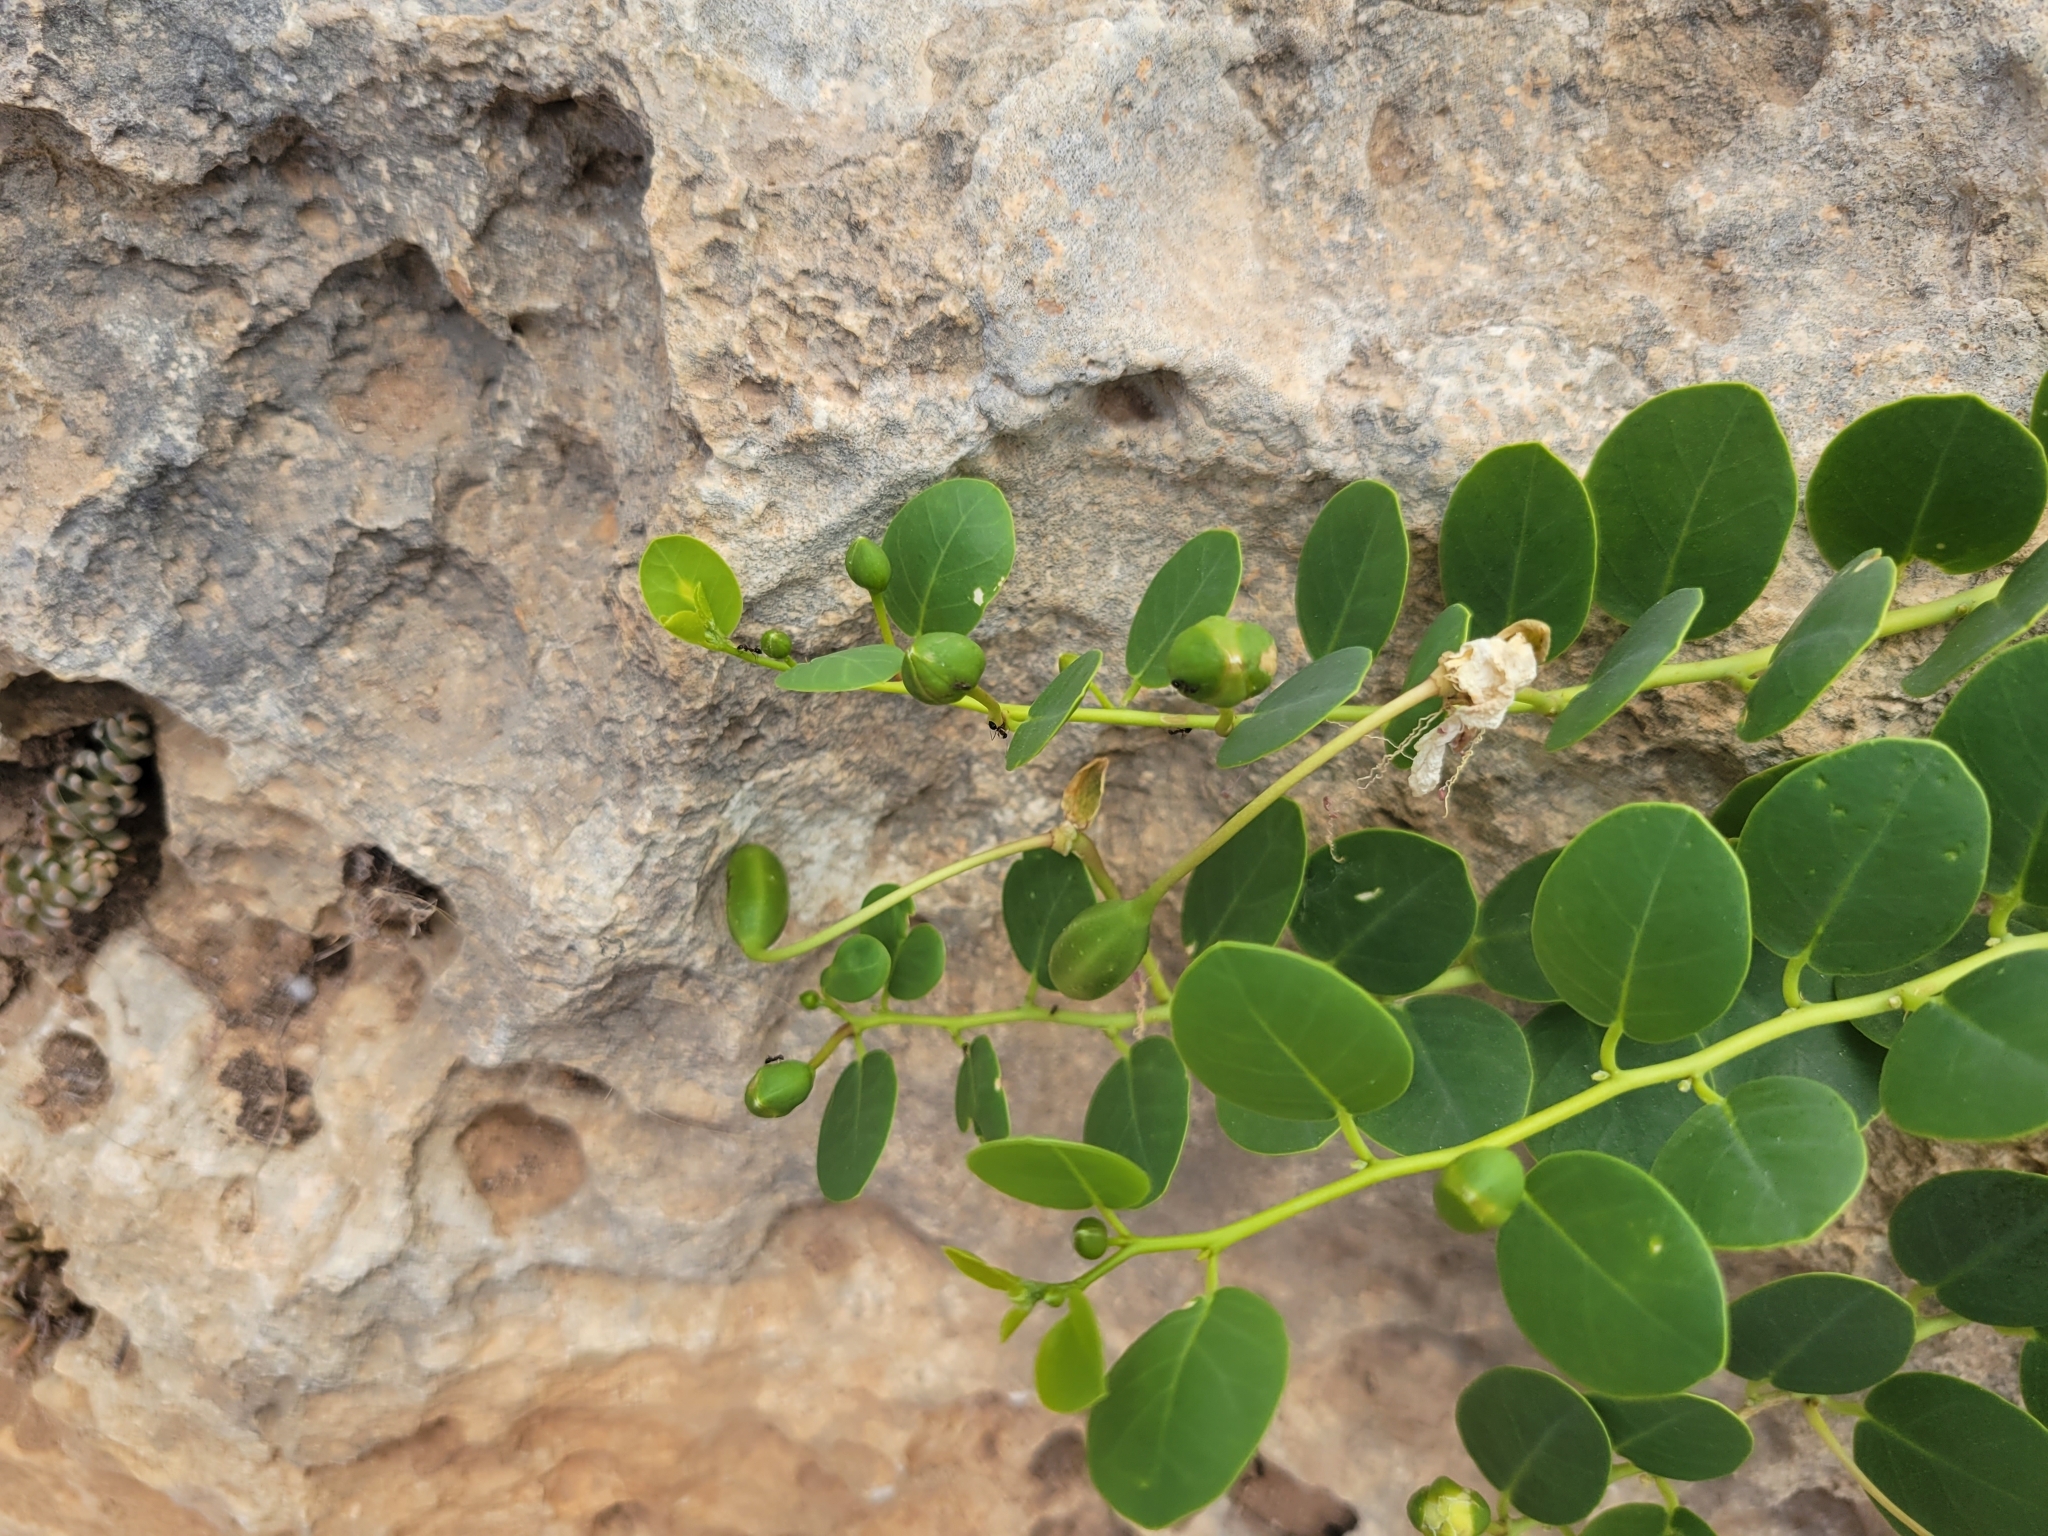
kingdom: Plantae
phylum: Tracheophyta
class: Magnoliopsida
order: Brassicales
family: Capparaceae
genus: Capparis
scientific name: Capparis orientalis
